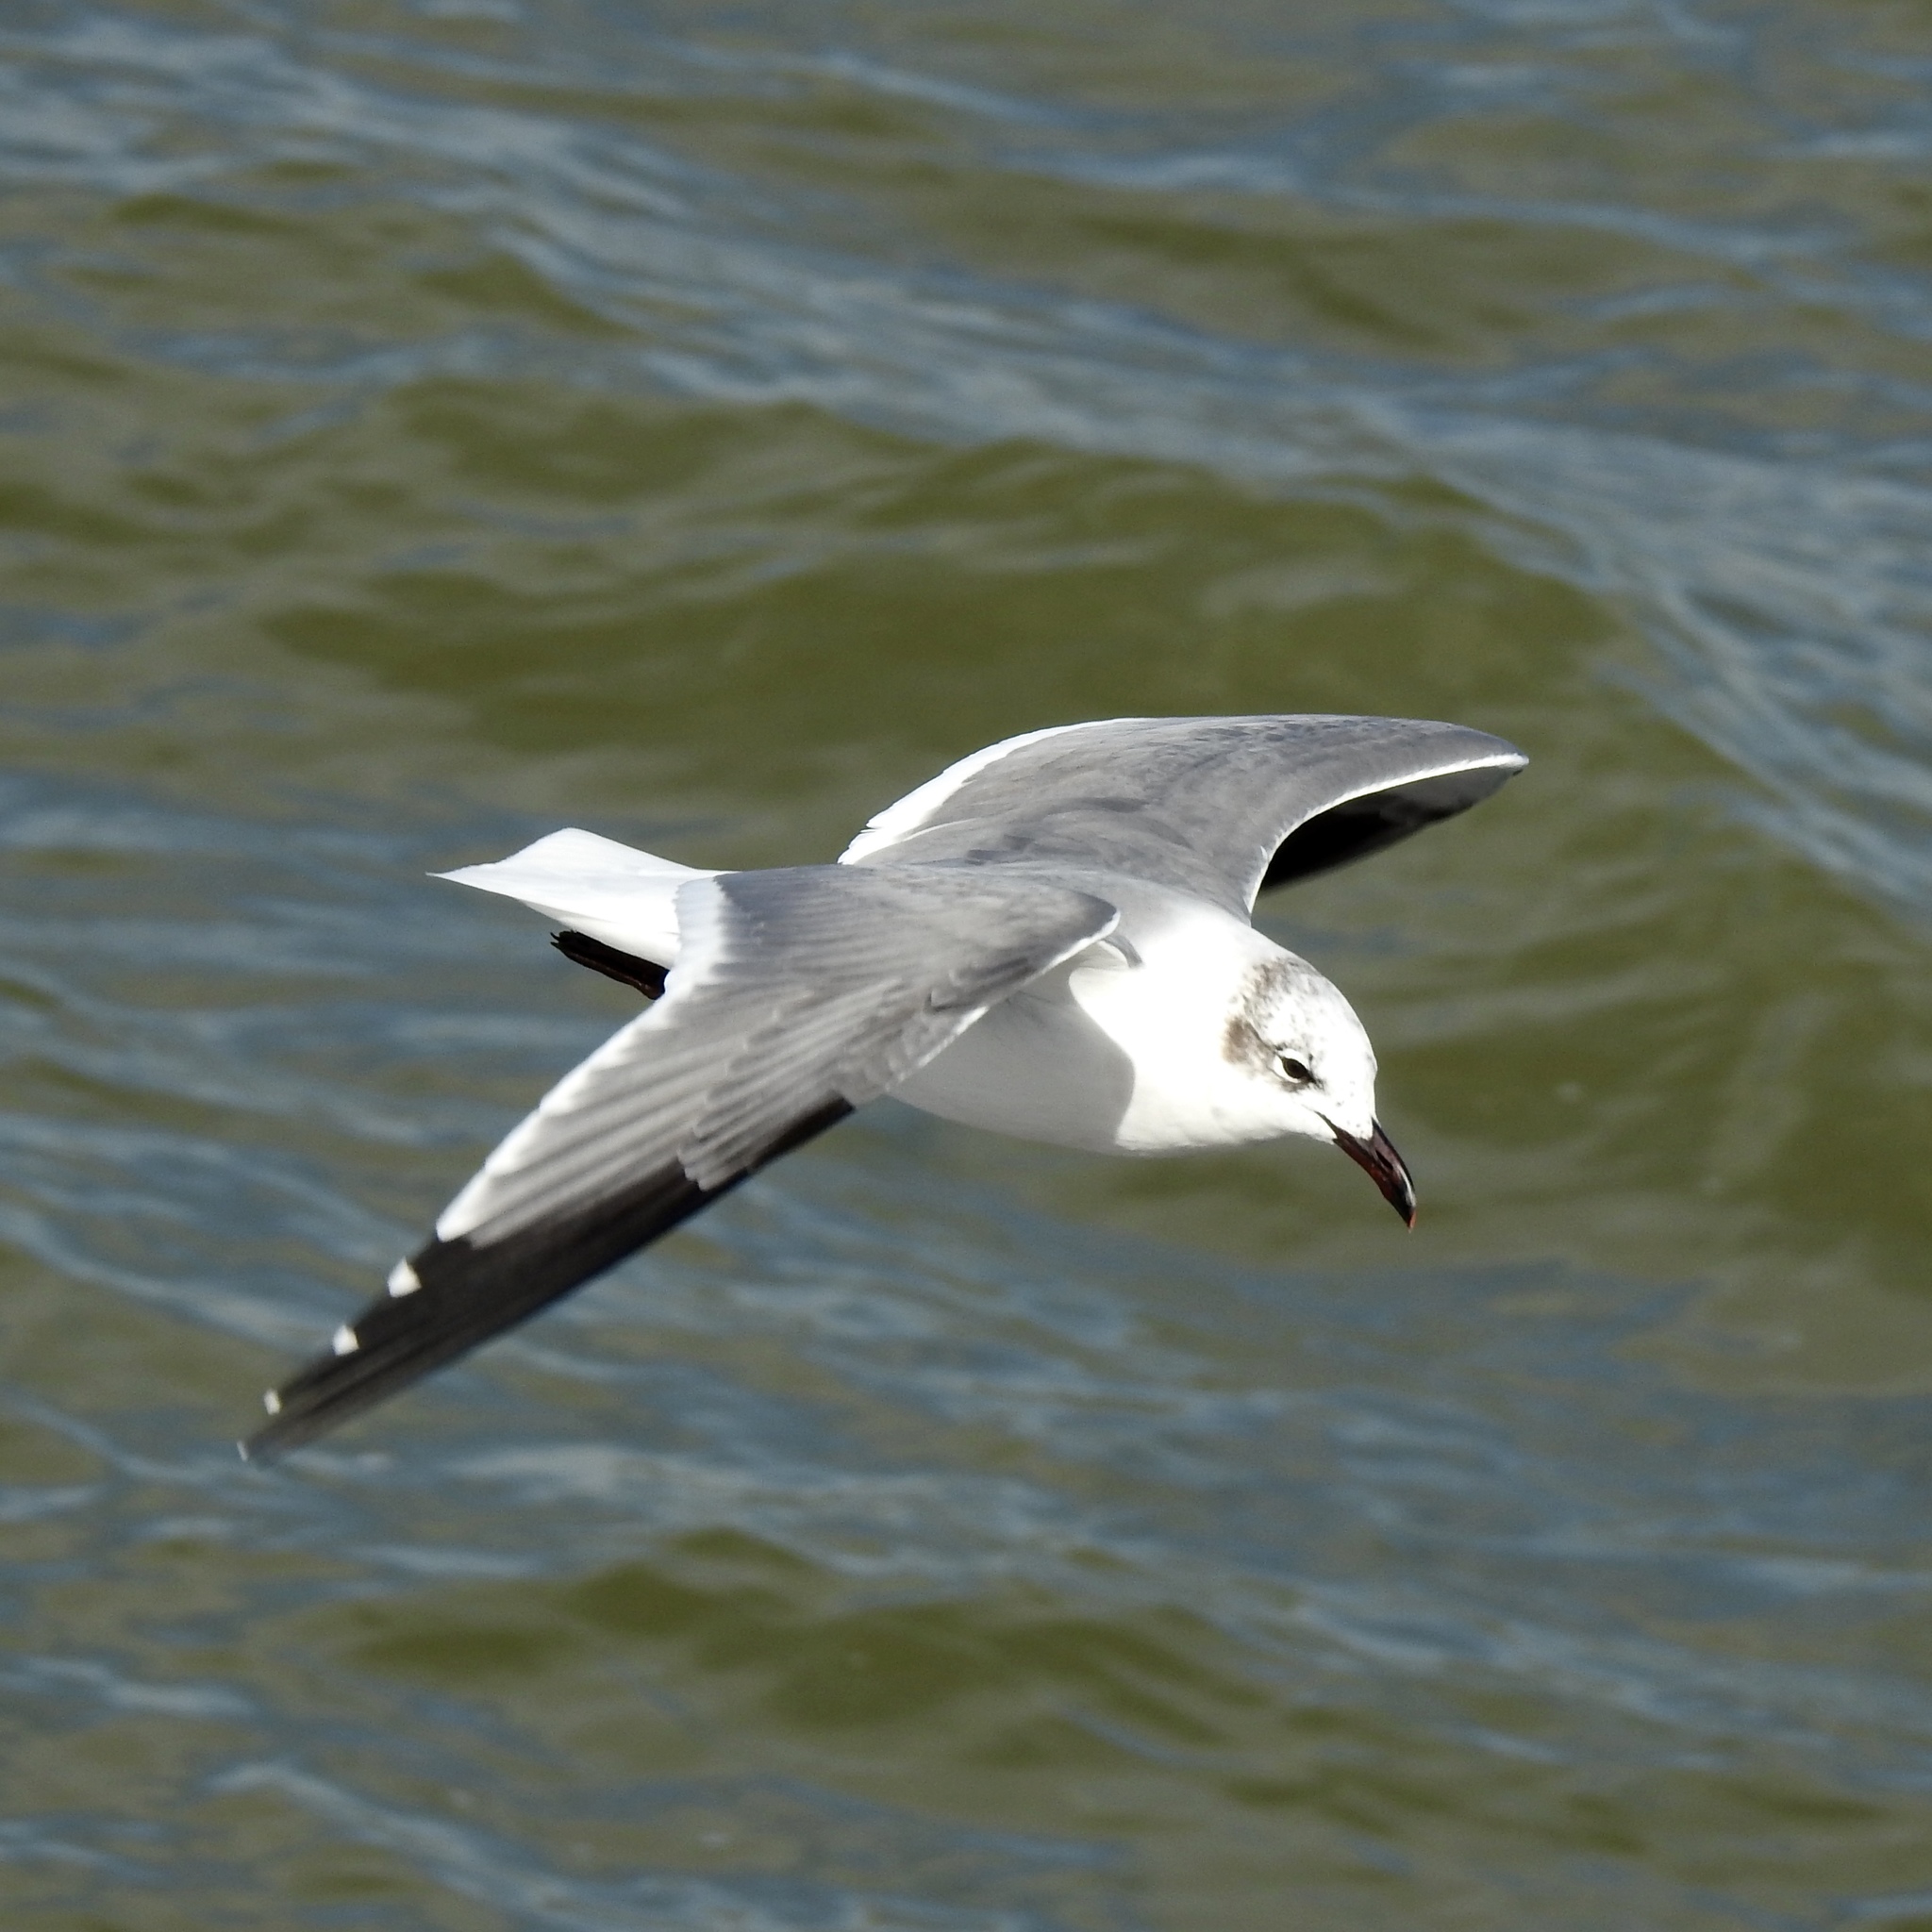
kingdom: Animalia
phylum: Chordata
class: Aves
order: Charadriiformes
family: Laridae
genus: Leucophaeus
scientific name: Leucophaeus atricilla
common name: Laughing gull
